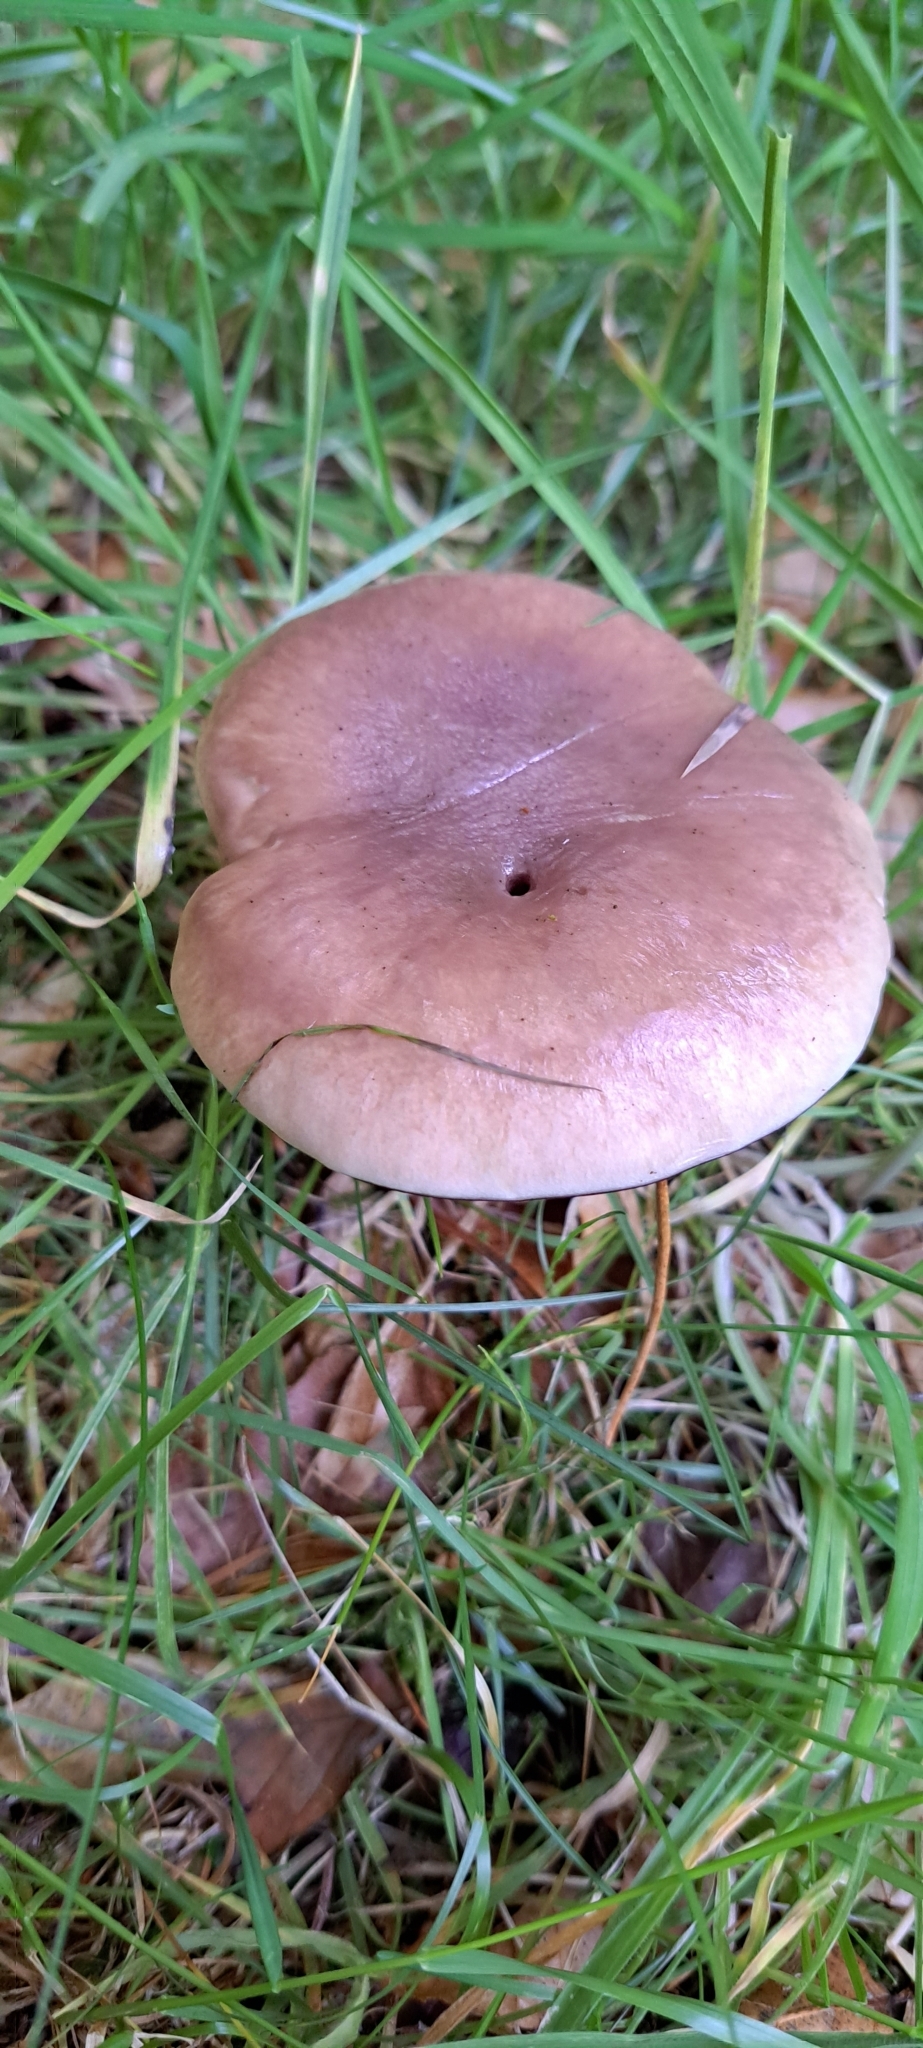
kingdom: Fungi
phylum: Basidiomycota
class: Agaricomycetes
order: Boletales
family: Gomphidiaceae
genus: Gomphidius
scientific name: Gomphidius glutinosus
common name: Slimy spike
